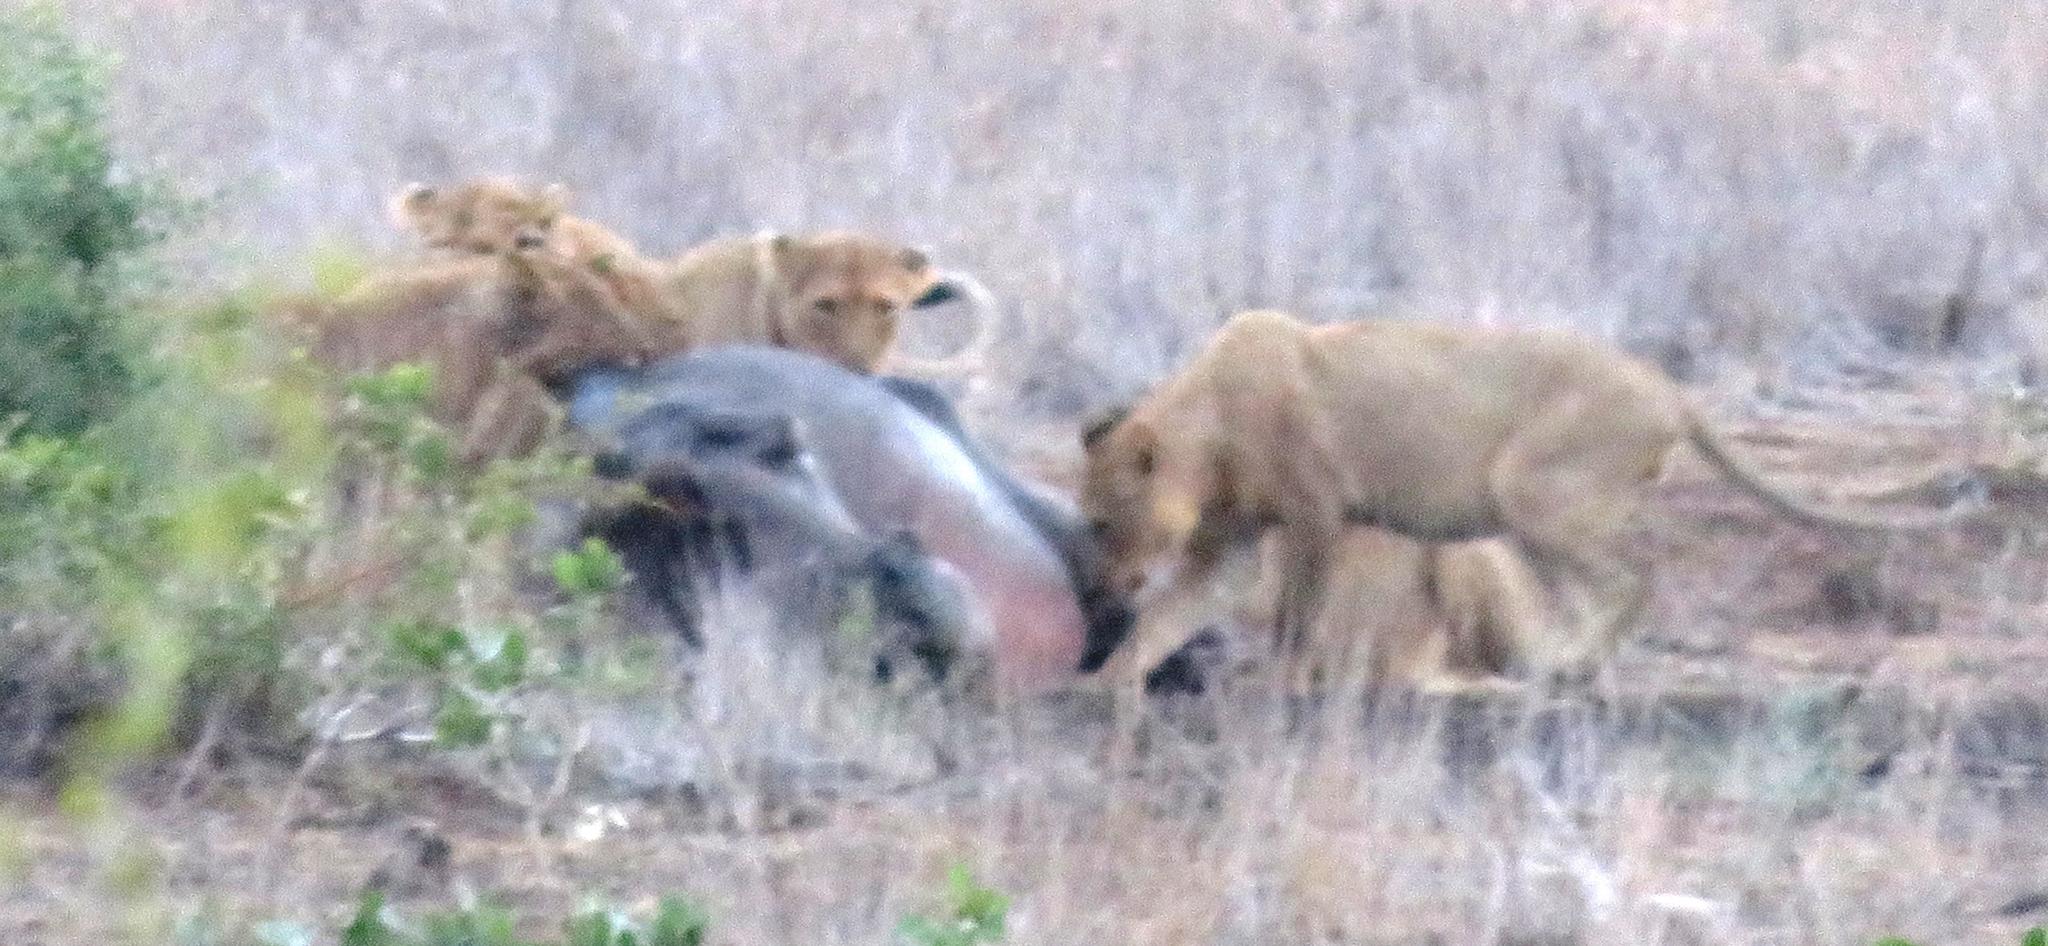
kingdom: Animalia
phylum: Chordata
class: Mammalia
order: Artiodactyla
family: Hippopotamidae
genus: Hippopotamus
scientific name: Hippopotamus amphibius
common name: Common hippopotamus
